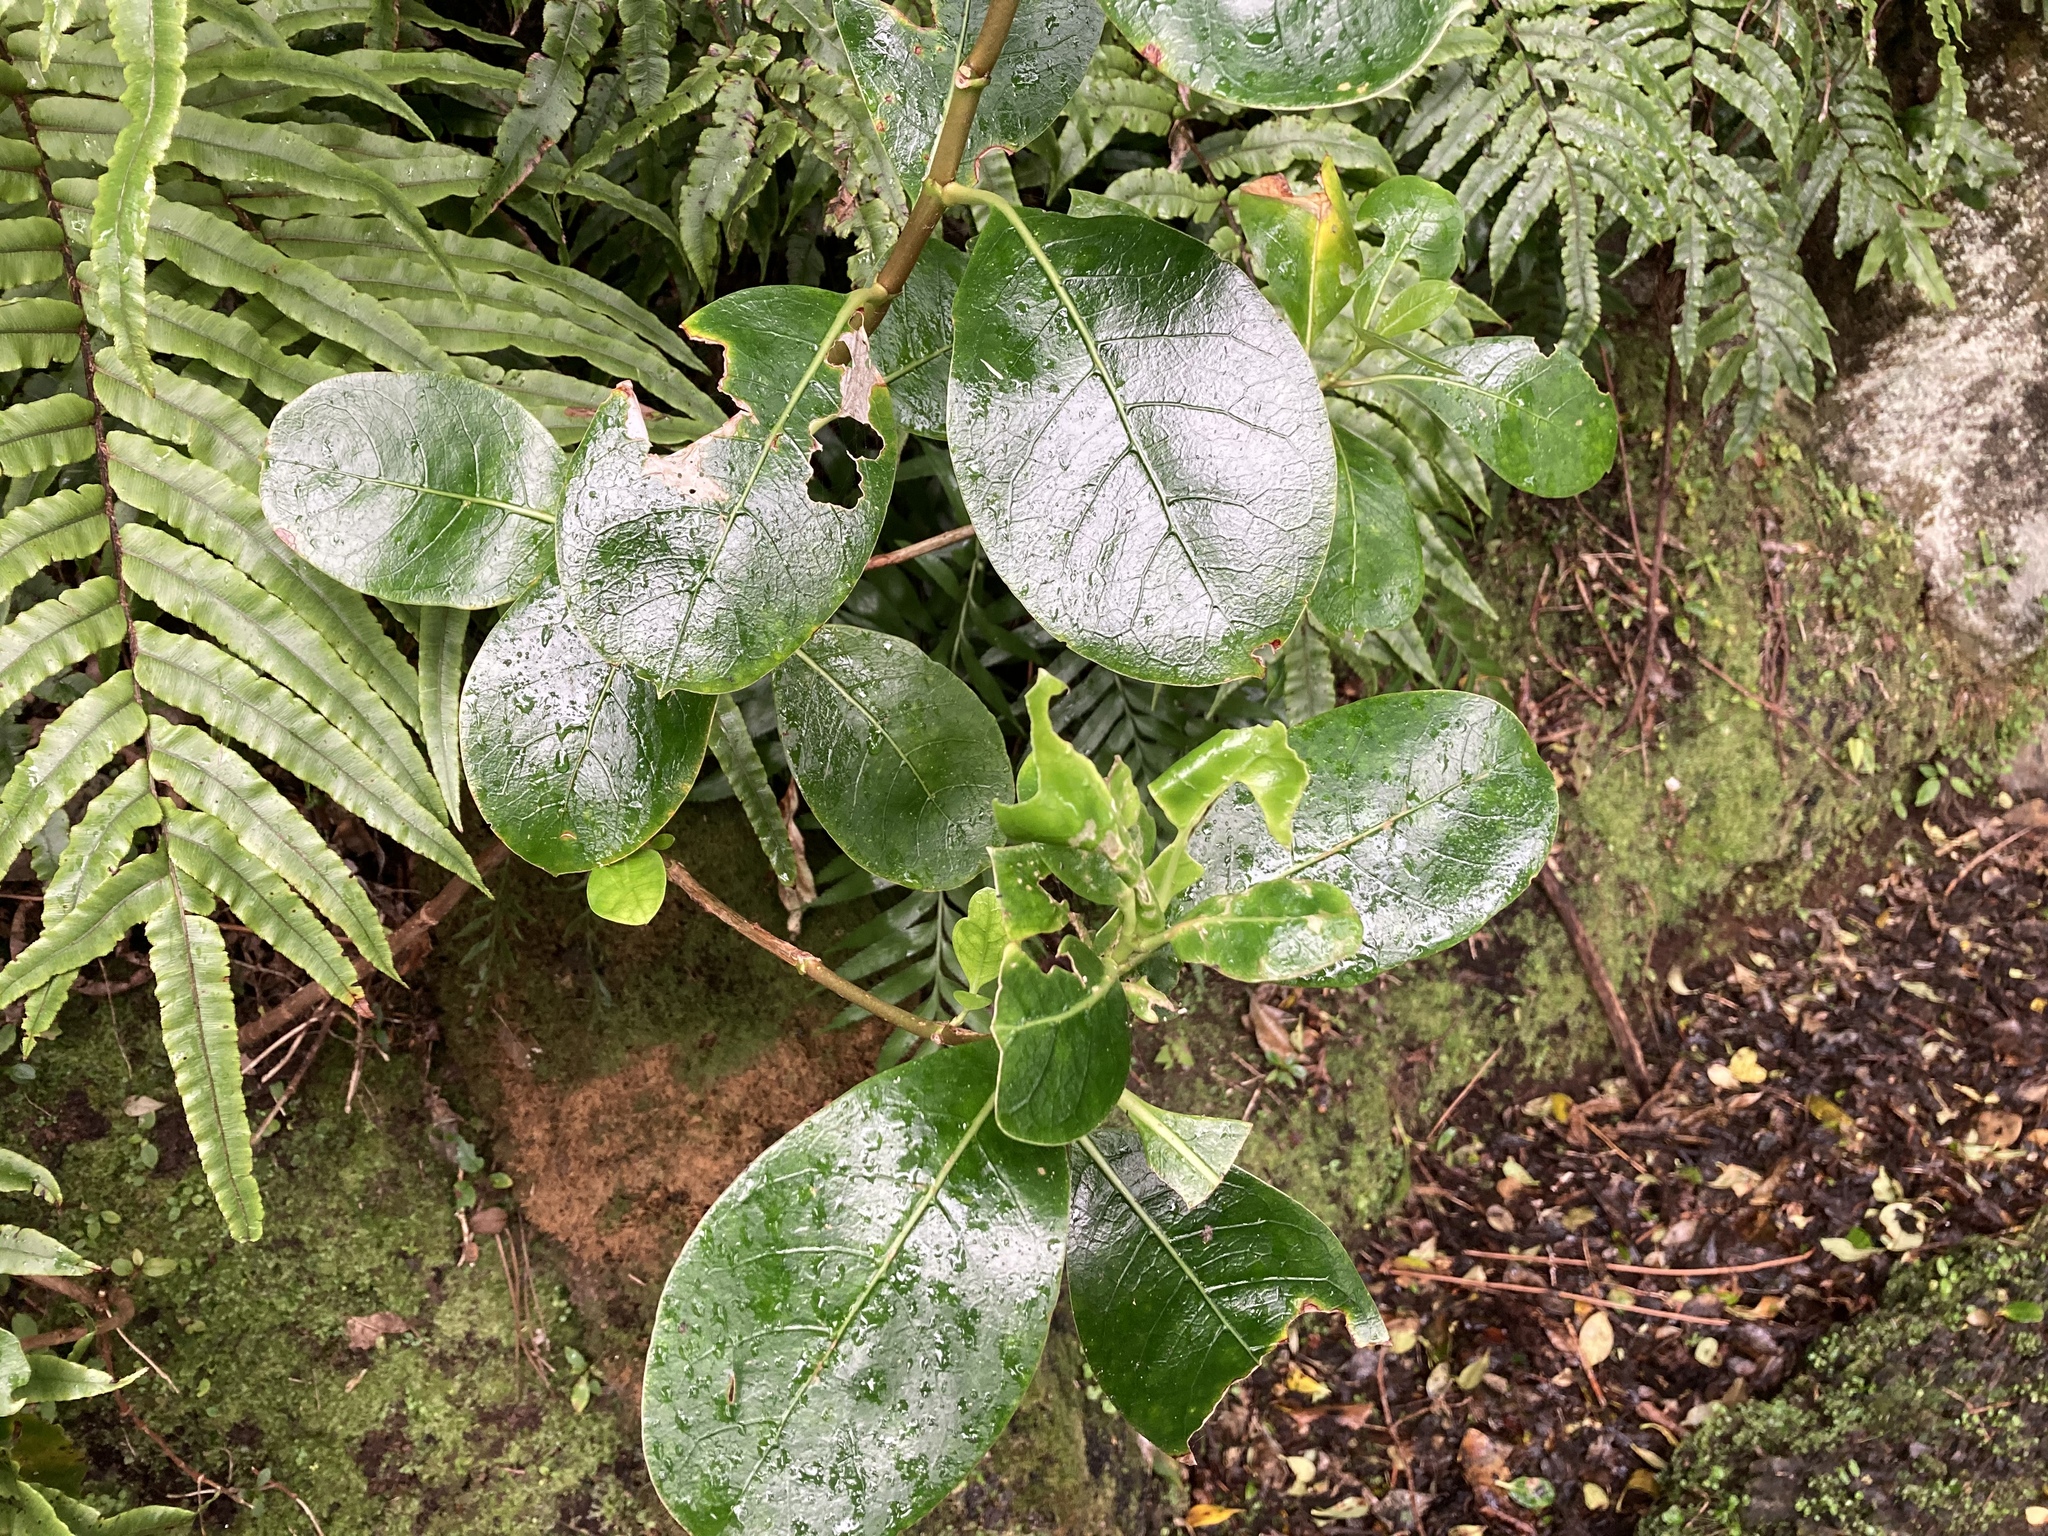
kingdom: Plantae
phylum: Tracheophyta
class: Magnoliopsida
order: Gentianales
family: Rubiaceae
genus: Coprosma
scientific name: Coprosma lucida
